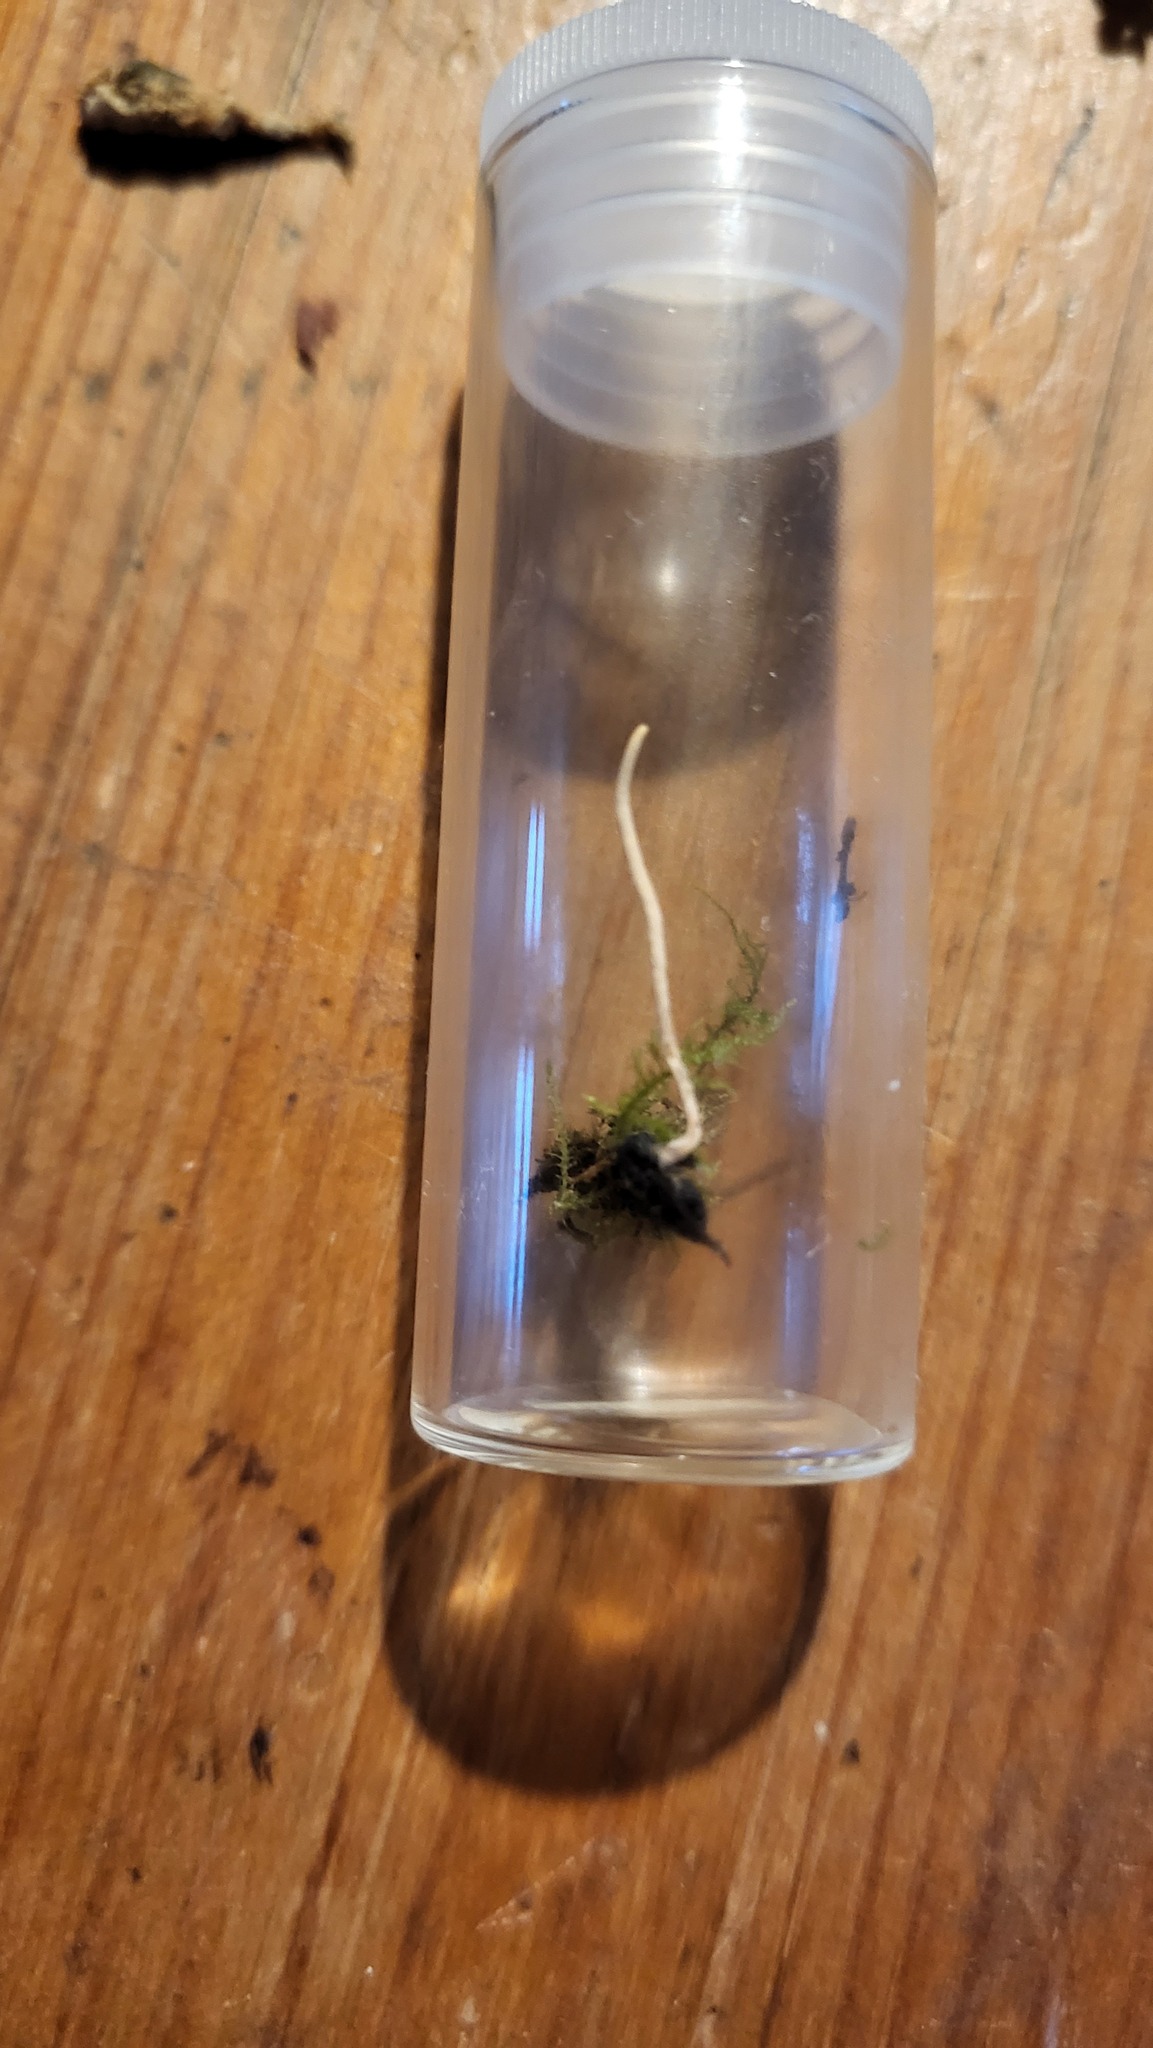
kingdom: Fungi
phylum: Ascomycota
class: Sordariomycetes
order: Hypocreales
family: Ophiocordycipitaceae
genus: Ophiocordyceps
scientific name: Ophiocordyceps ditmarii
